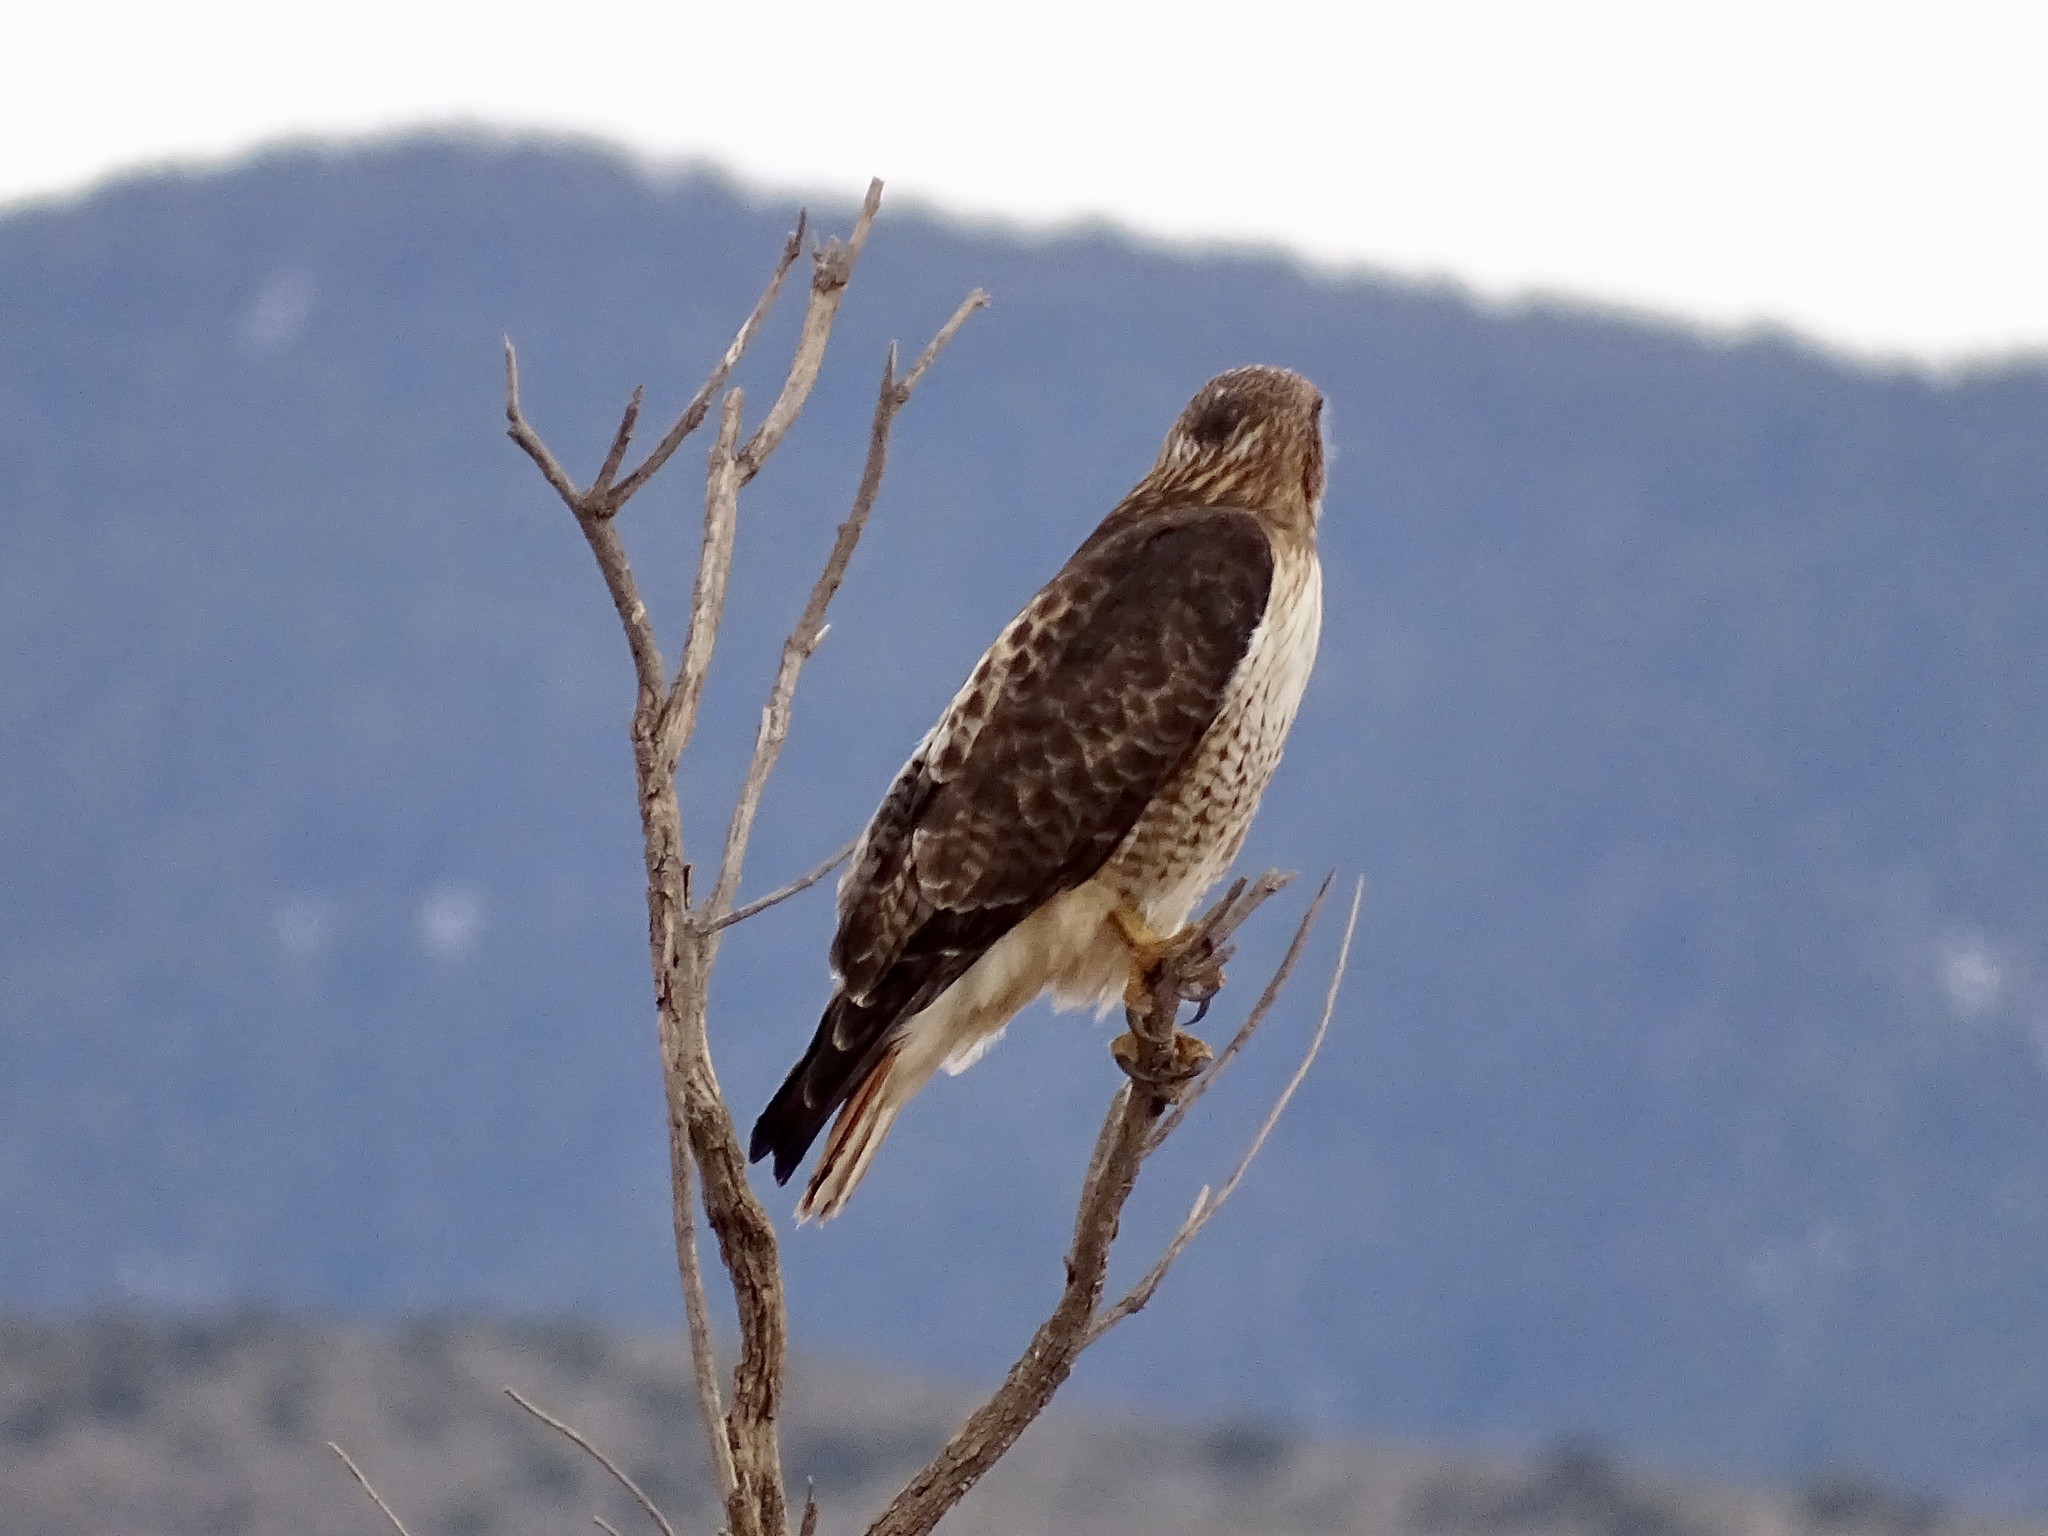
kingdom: Animalia
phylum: Chordata
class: Aves
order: Accipitriformes
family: Accipitridae
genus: Buteo
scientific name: Buteo jamaicensis
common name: Red-tailed hawk
